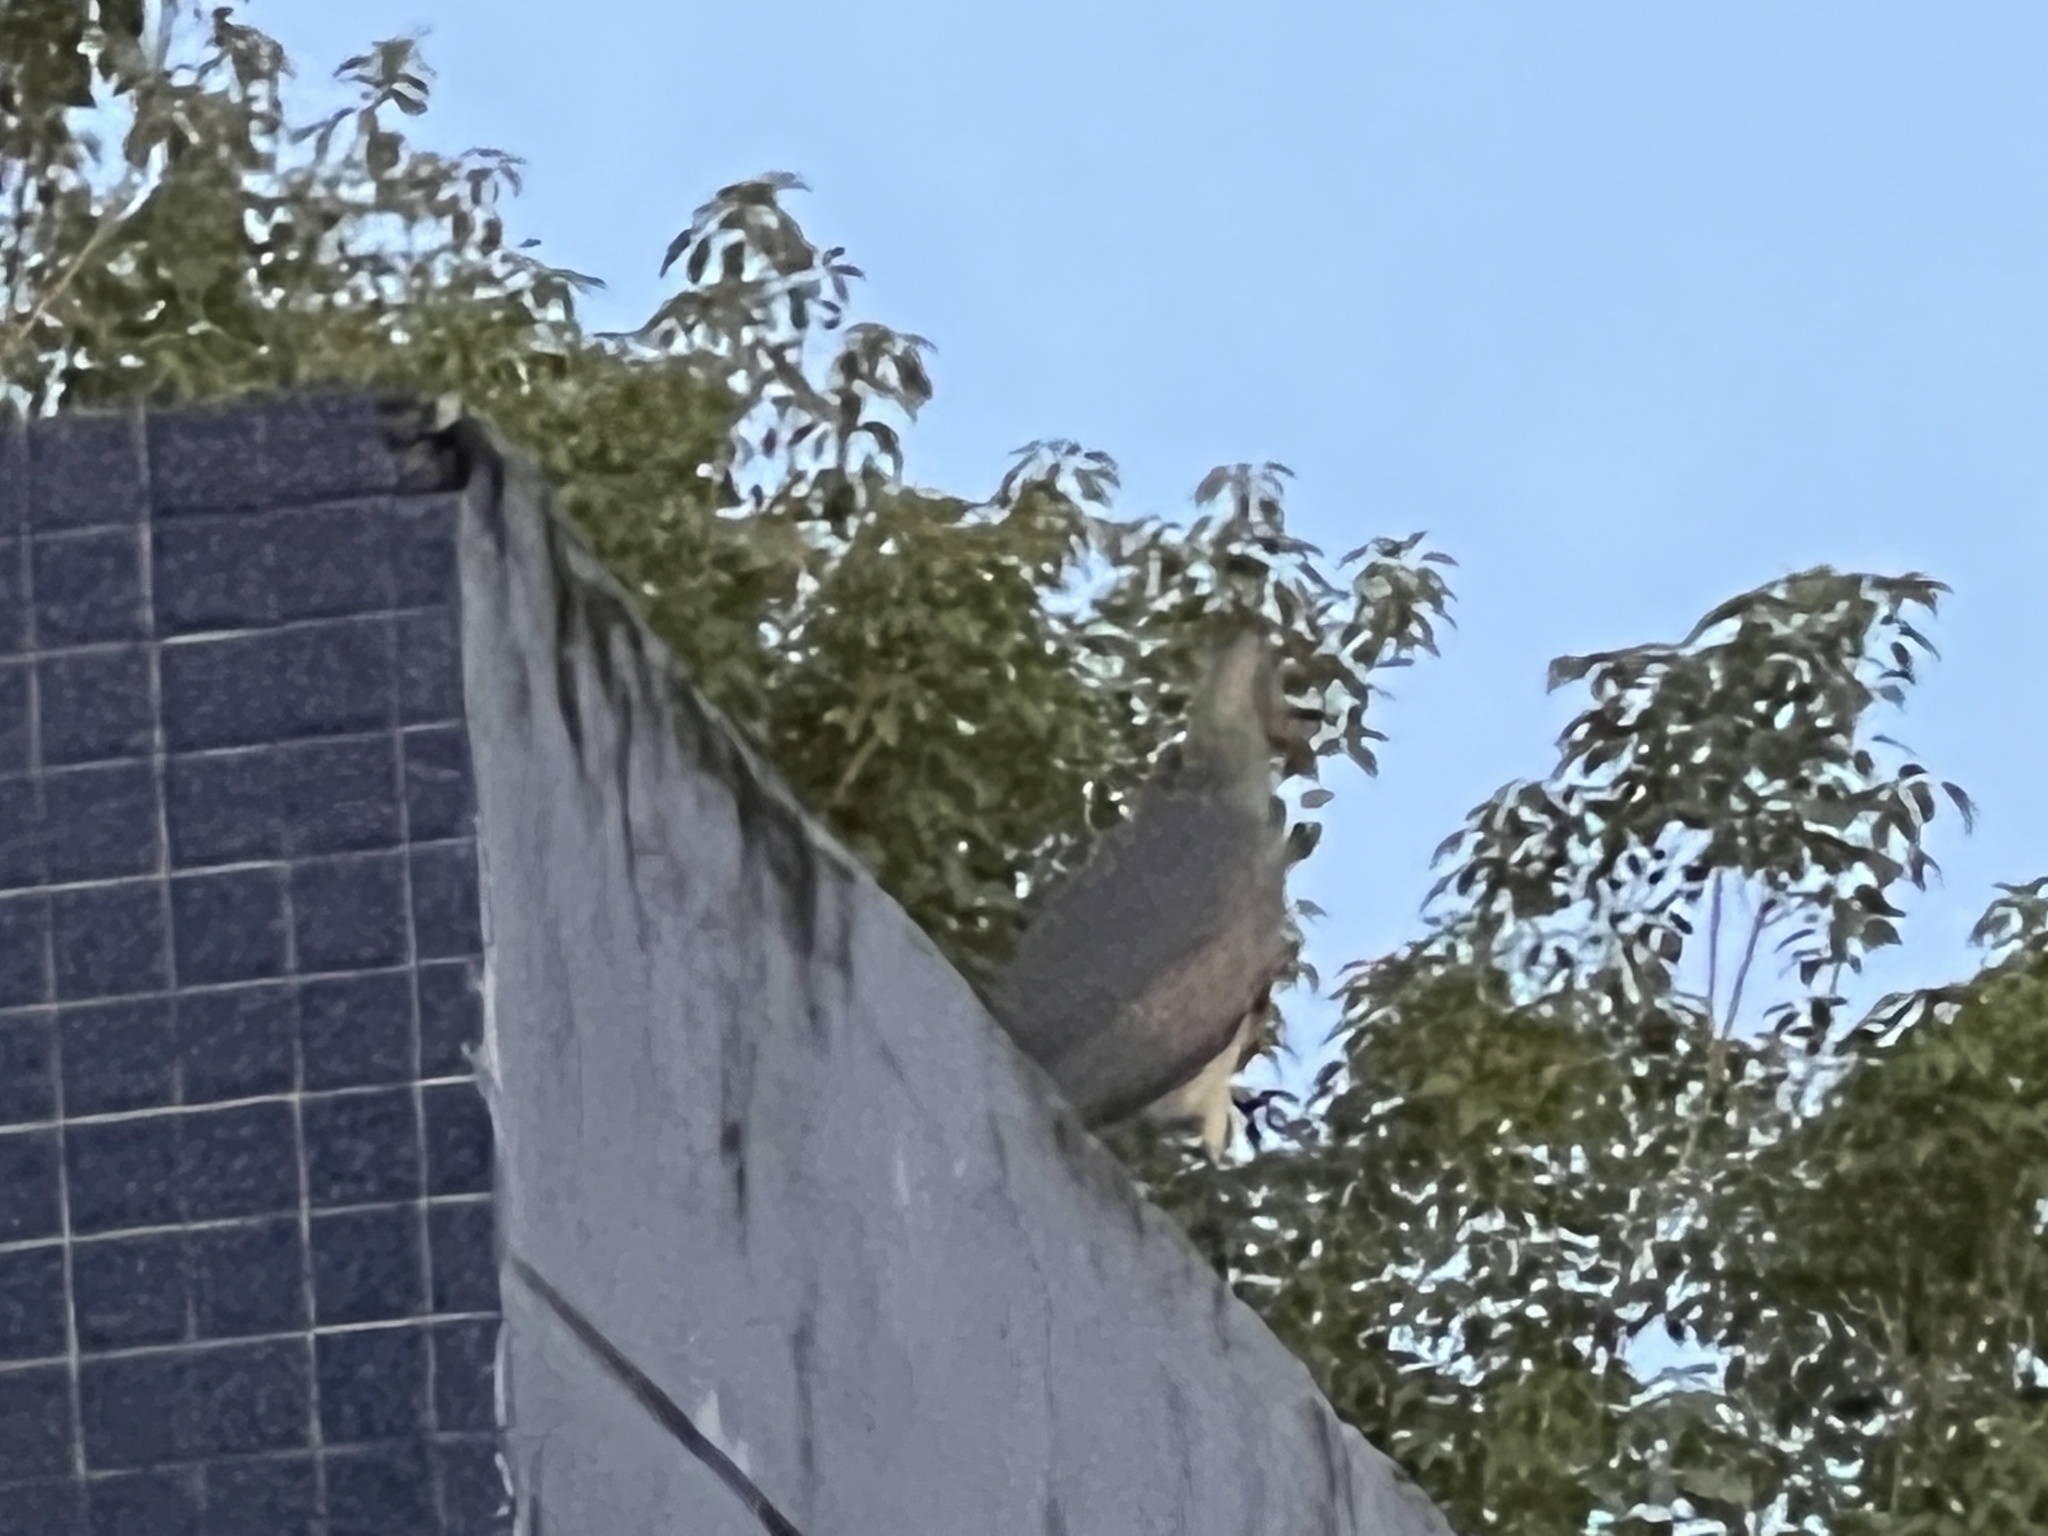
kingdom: Animalia
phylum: Chordata
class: Aves
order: Pelecaniformes
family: Ardeidae
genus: Syrigma
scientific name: Syrigma sibilatrix
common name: Whistling heron
